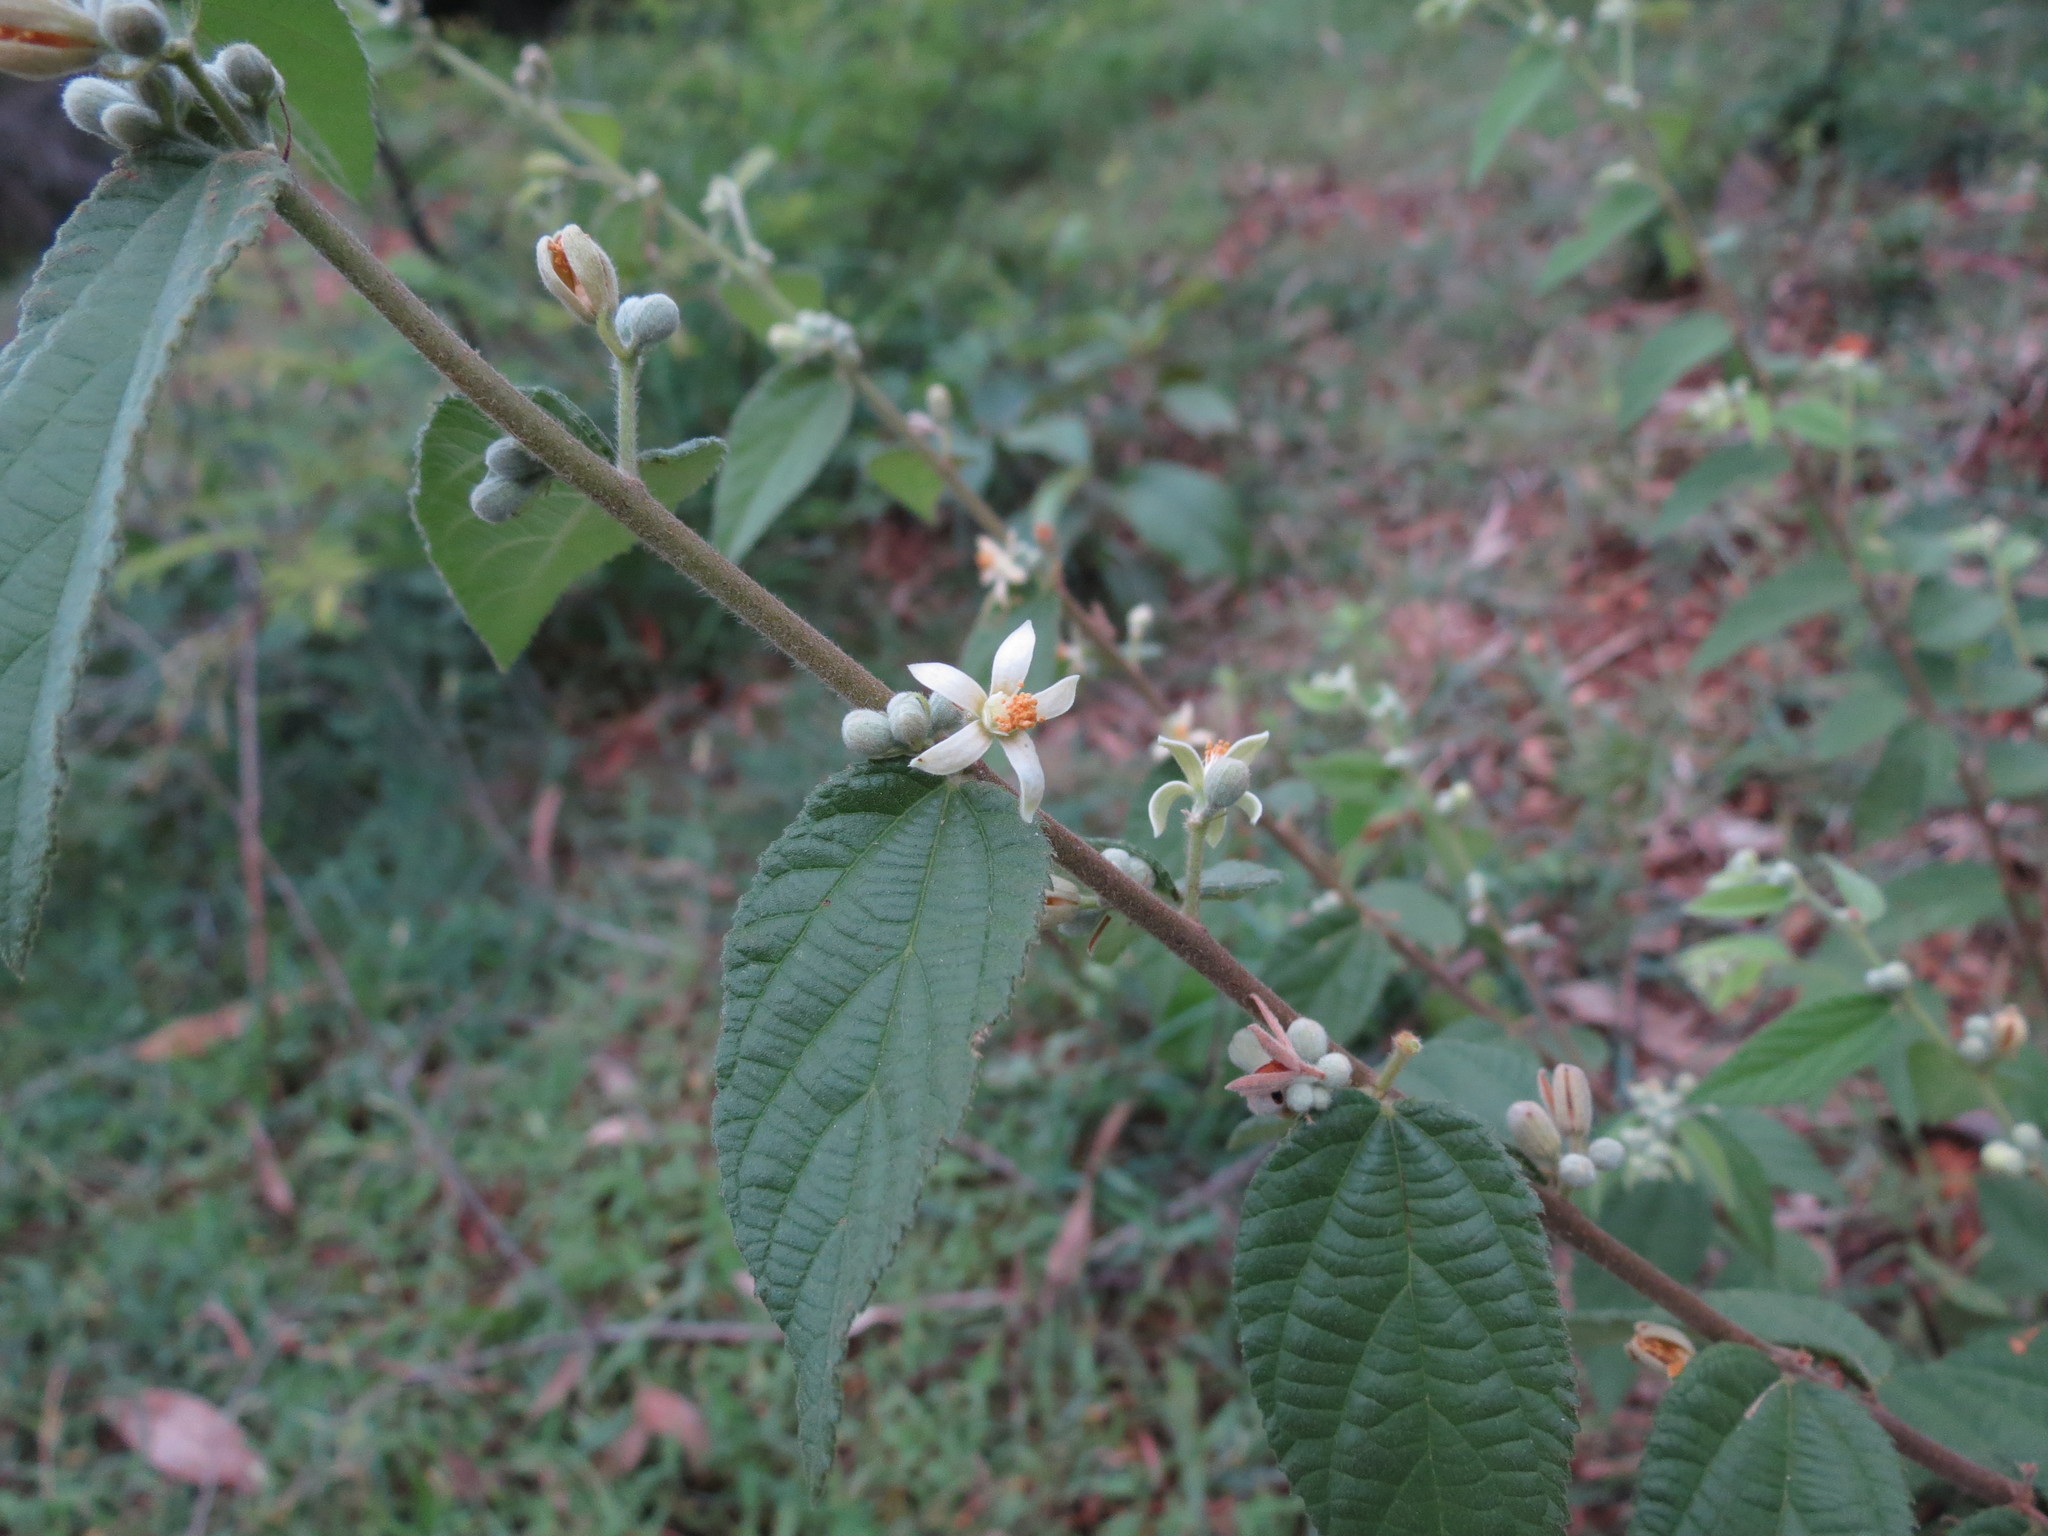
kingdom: Plantae
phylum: Tracheophyta
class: Magnoliopsida
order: Malvales
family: Malvaceae
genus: Grewia
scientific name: Grewia hirsuta
